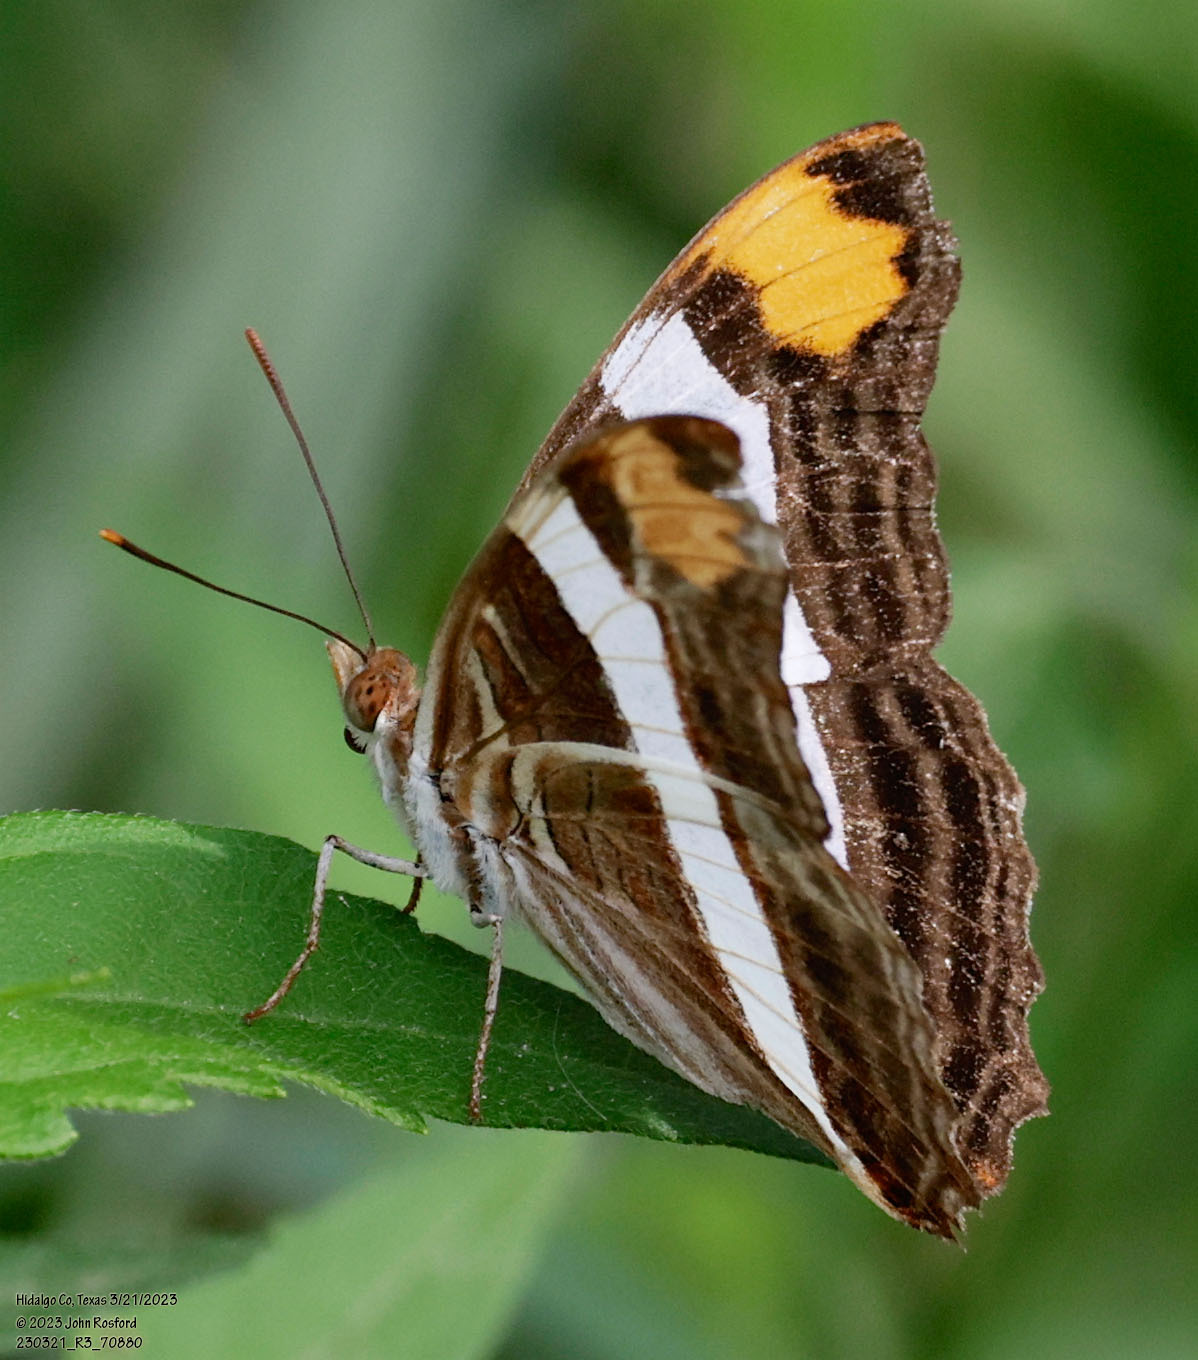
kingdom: Animalia
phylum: Arthropoda
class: Insecta
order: Lepidoptera
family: Nymphalidae
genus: Limenitis
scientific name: Limenitis fessonia
